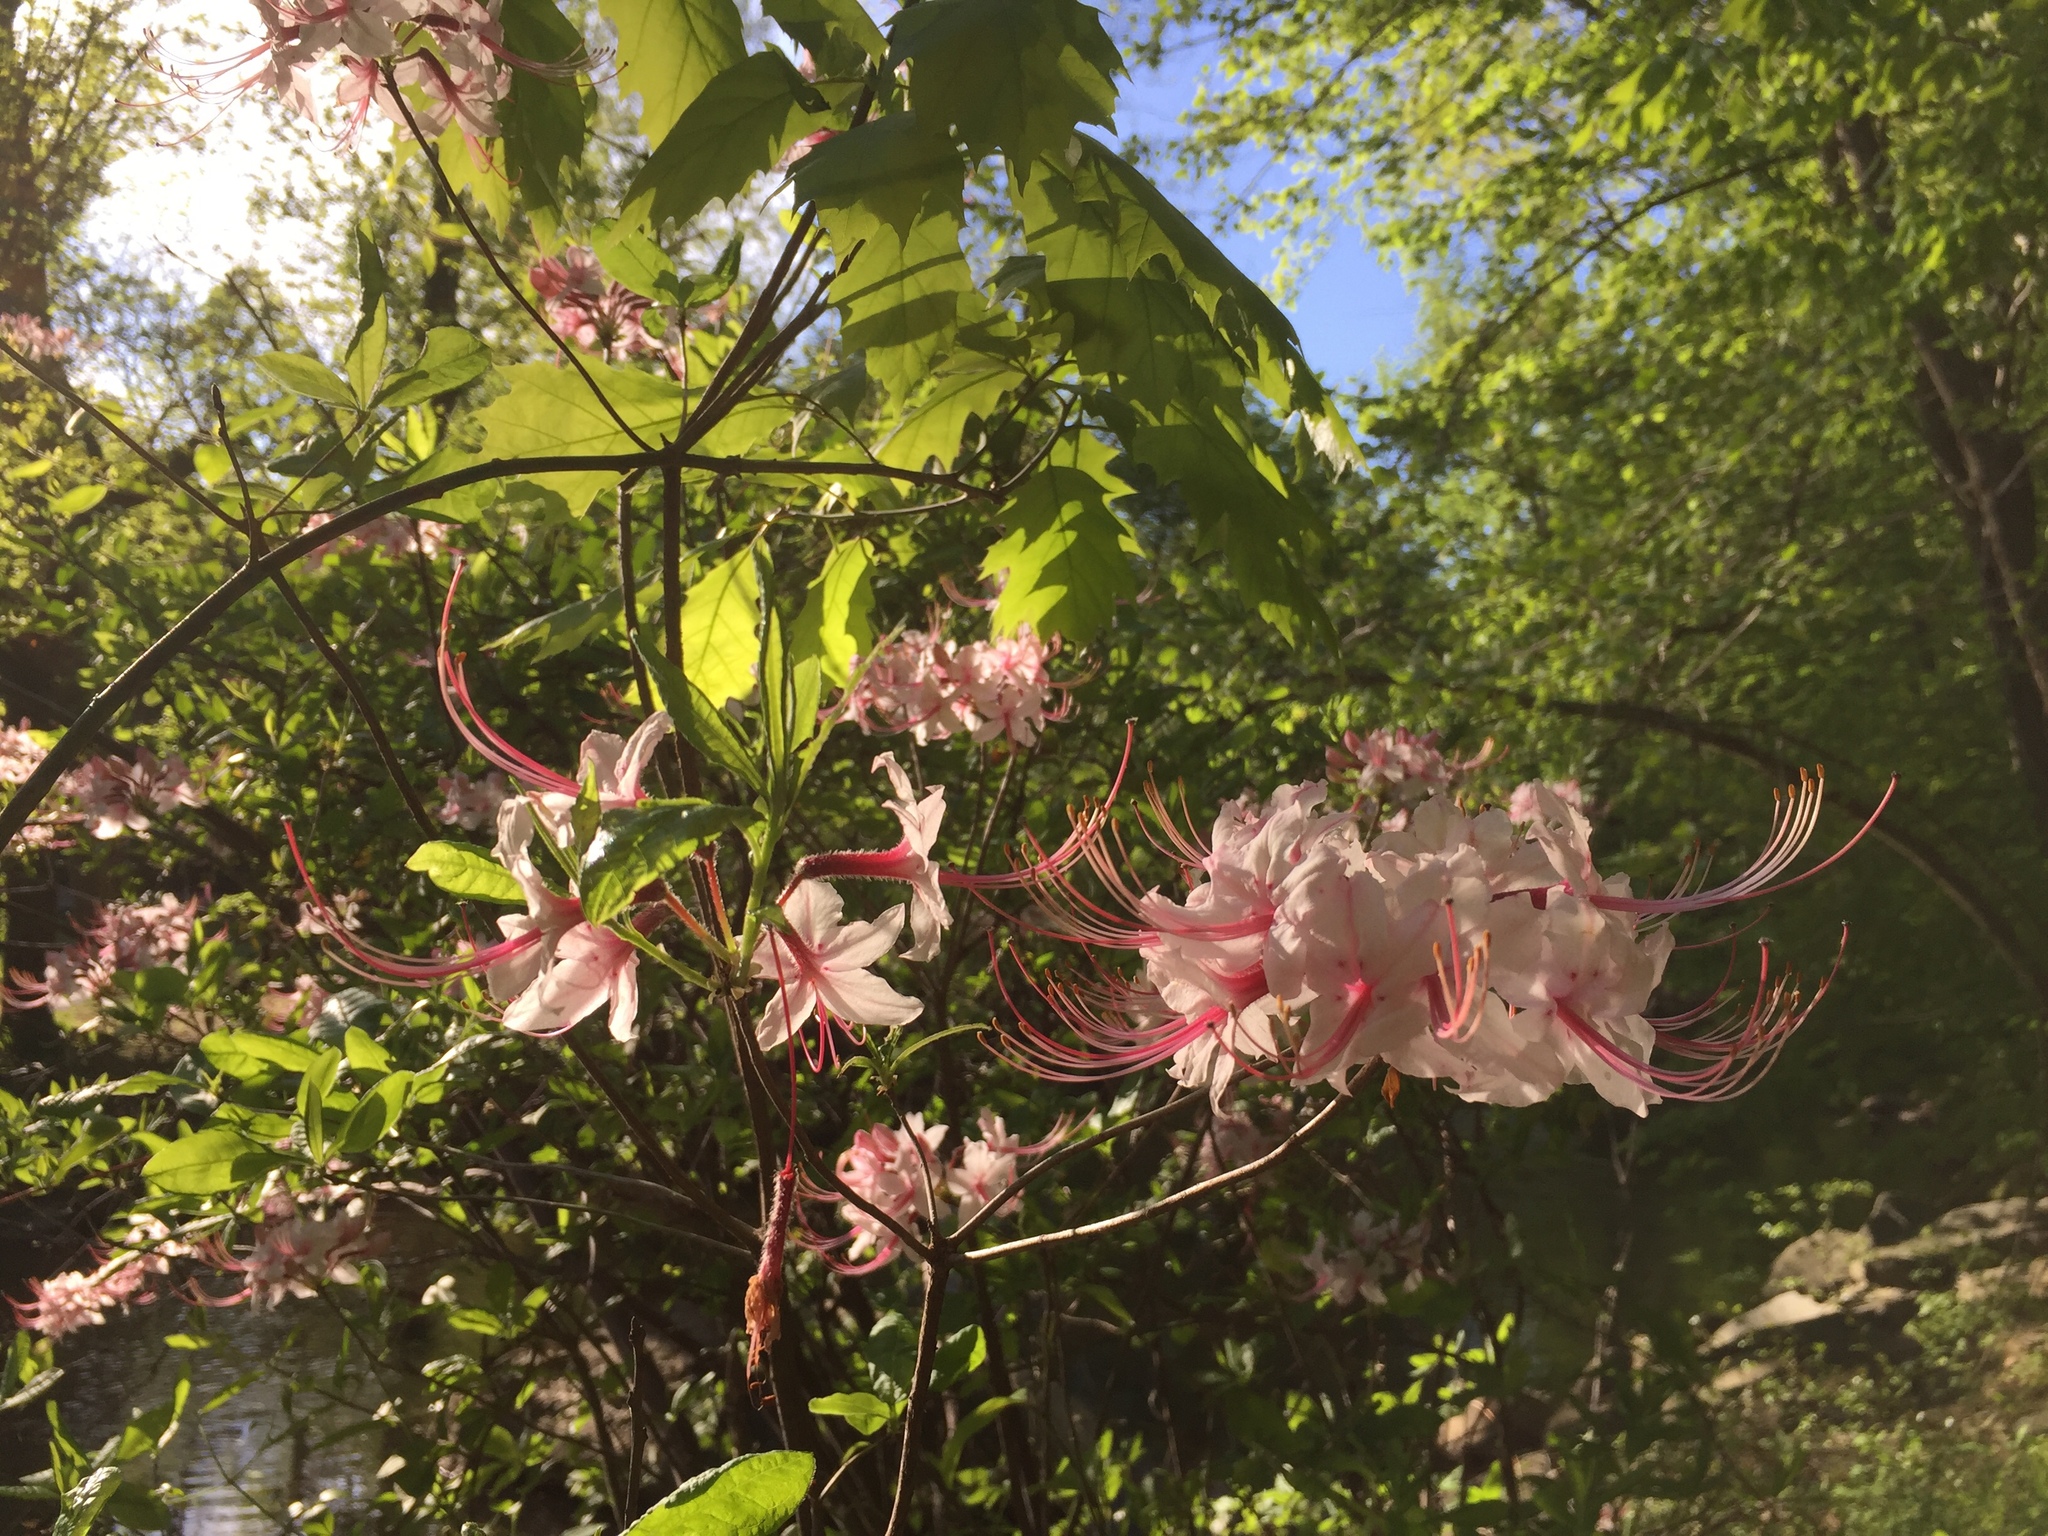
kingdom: Plantae
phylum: Tracheophyta
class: Magnoliopsida
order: Ericales
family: Ericaceae
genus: Rhododendron
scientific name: Rhododendron periclymenoides
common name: Election-pink
